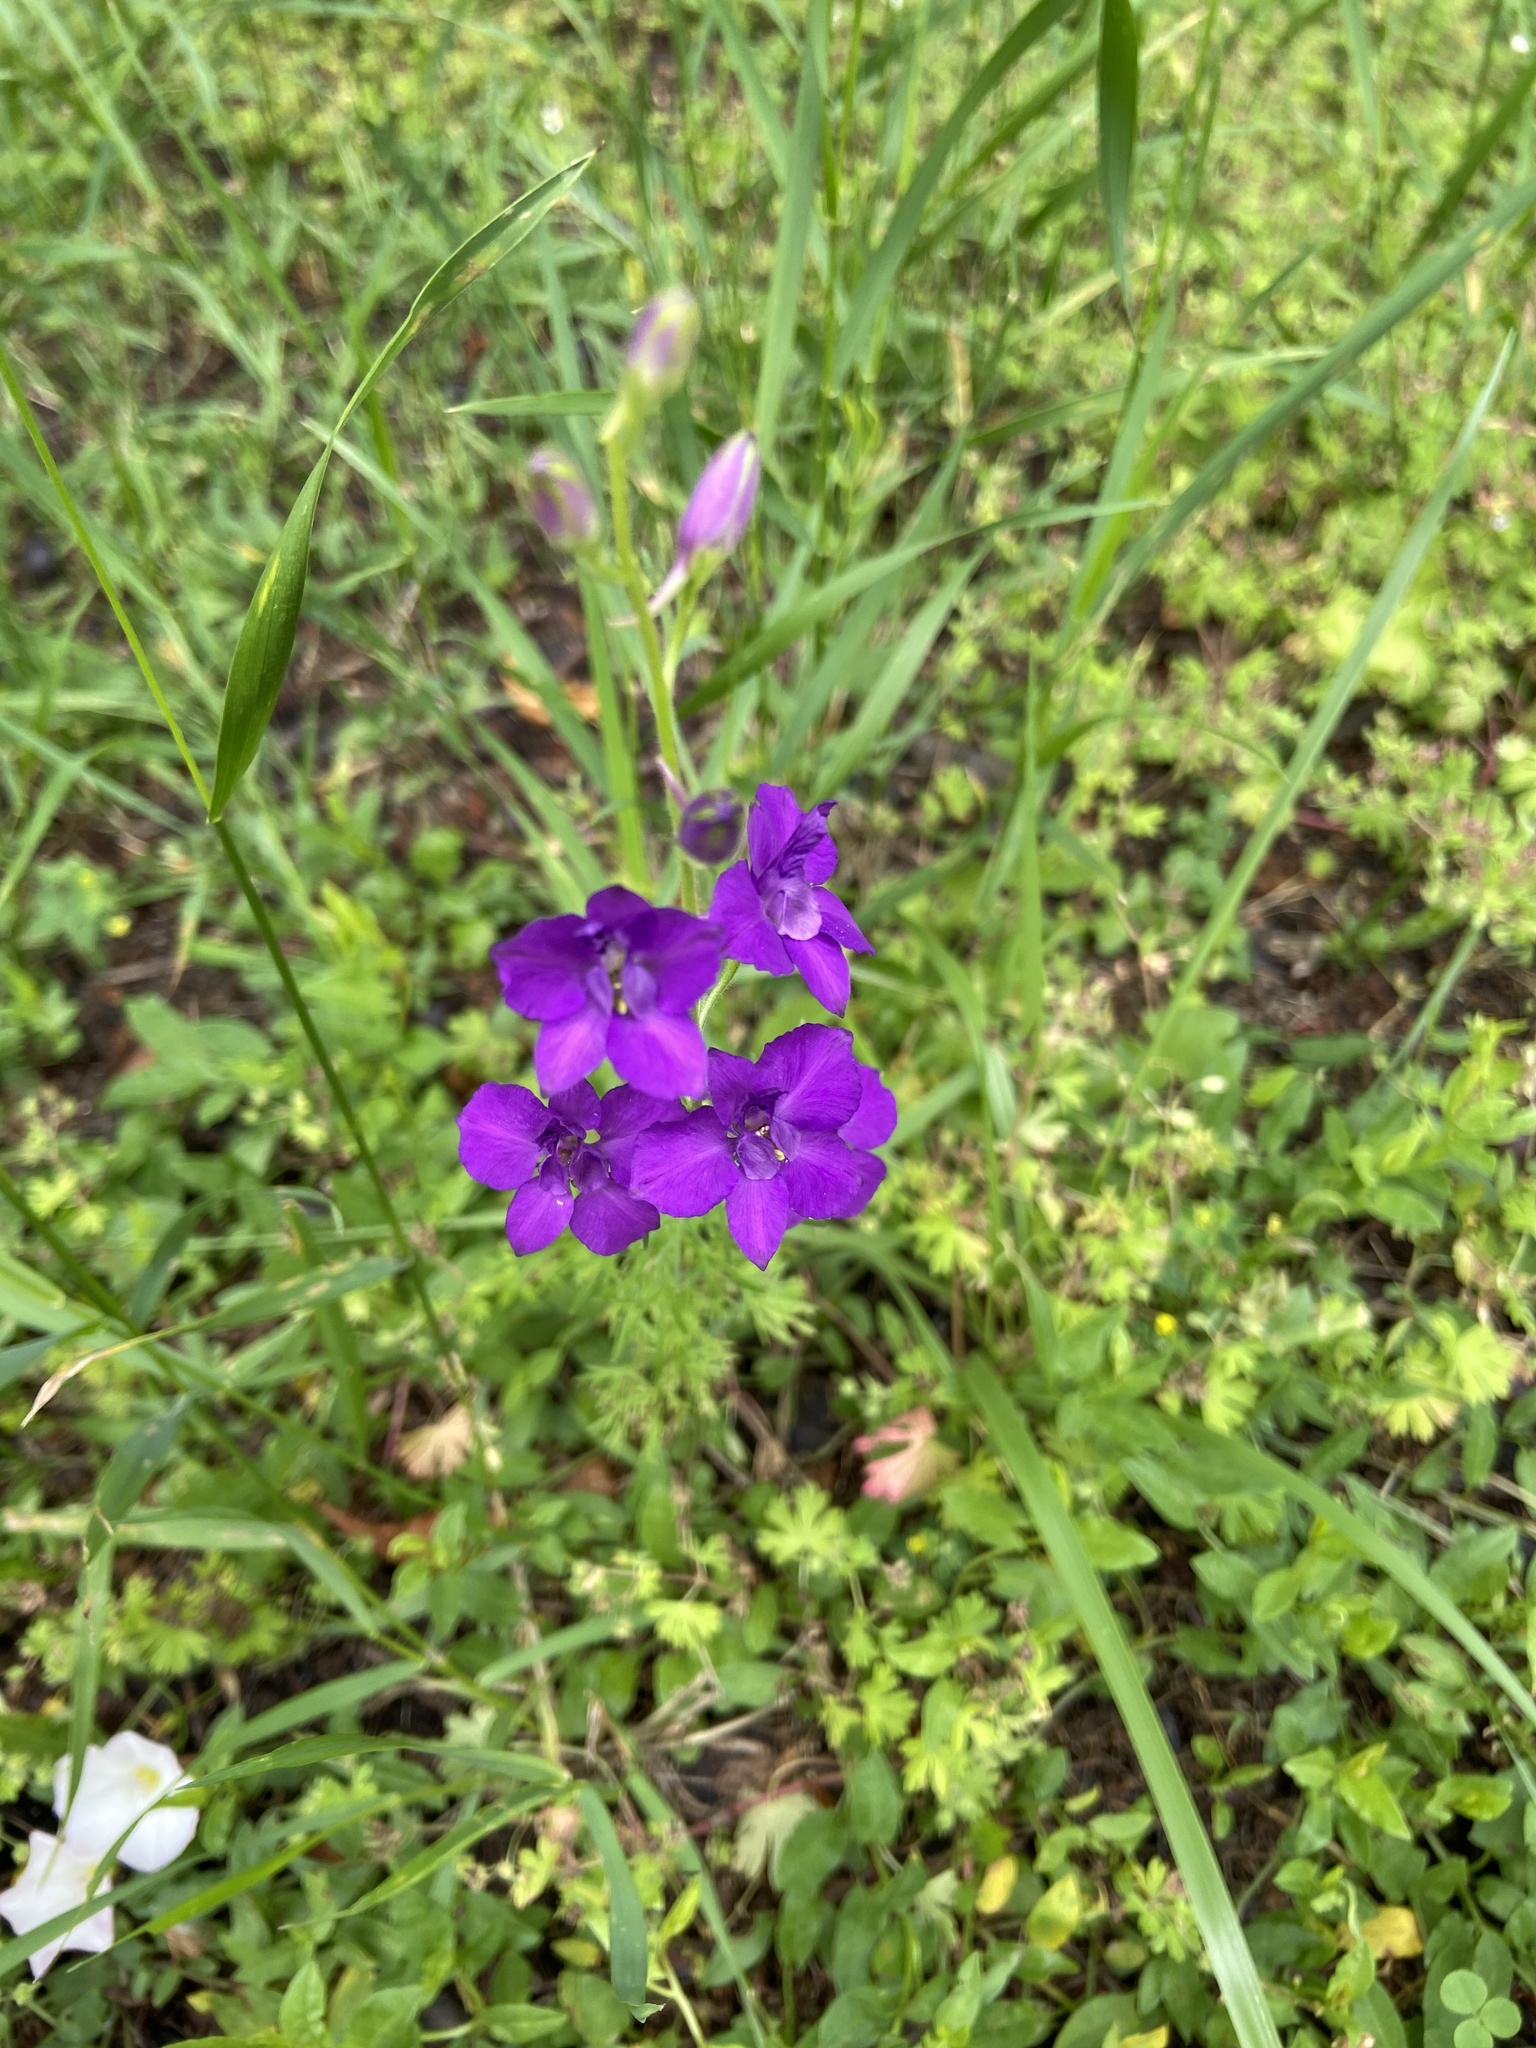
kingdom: Plantae
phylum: Tracheophyta
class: Magnoliopsida
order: Ranunculales
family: Ranunculaceae
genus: Delphinium
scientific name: Delphinium ajacis
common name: Doubtful knight's-spur
